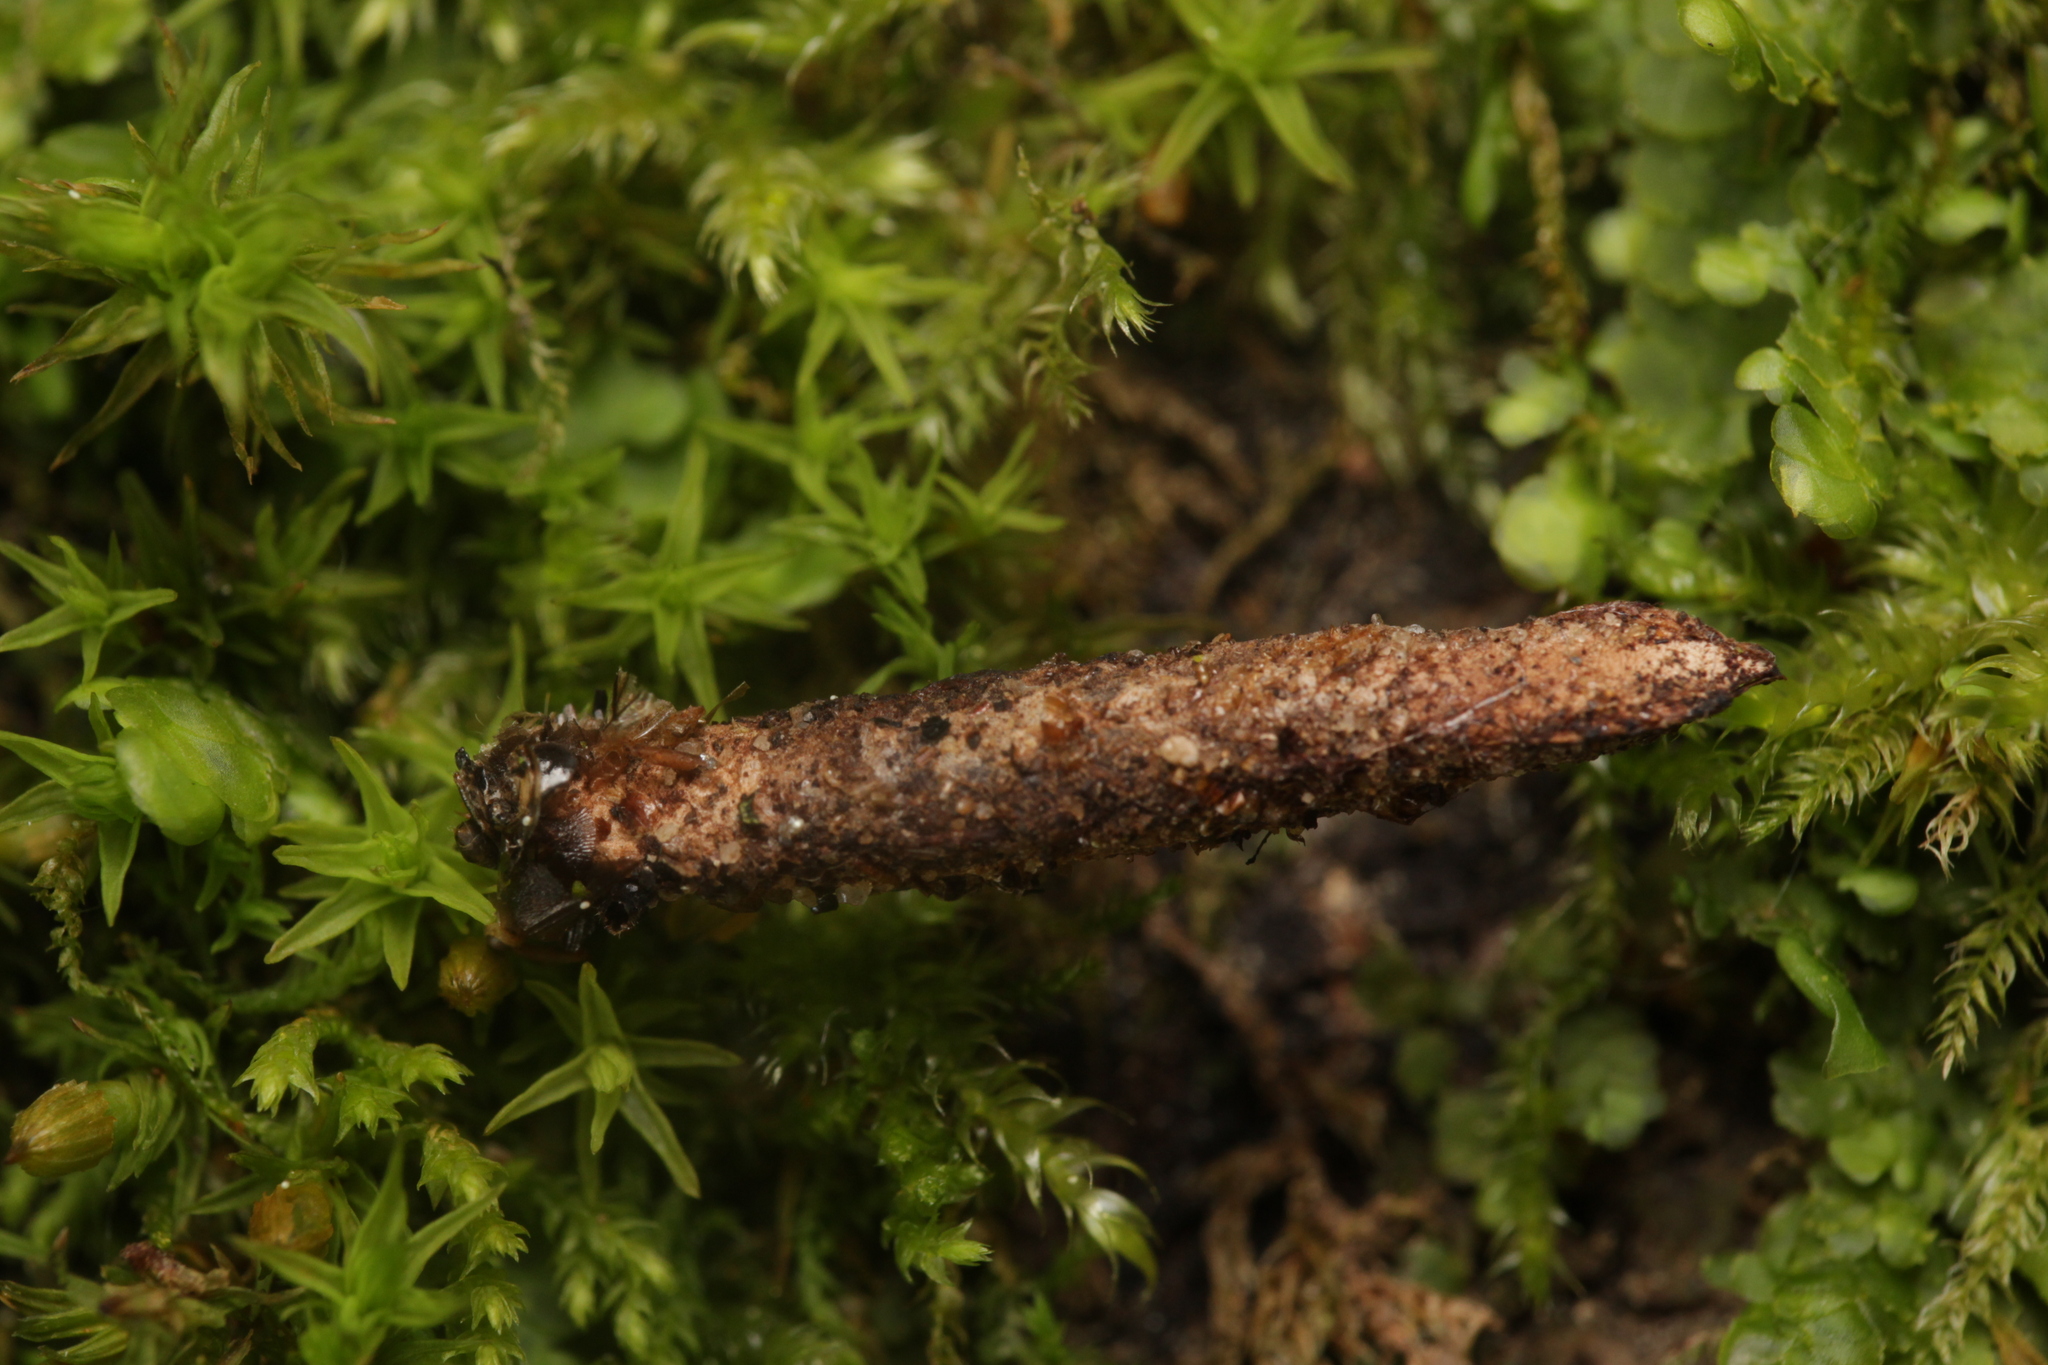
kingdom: Animalia
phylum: Arthropoda
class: Insecta
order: Lepidoptera
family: Psychidae
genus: Taleporia
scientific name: Taleporia tubulosa
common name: Brown smoke
